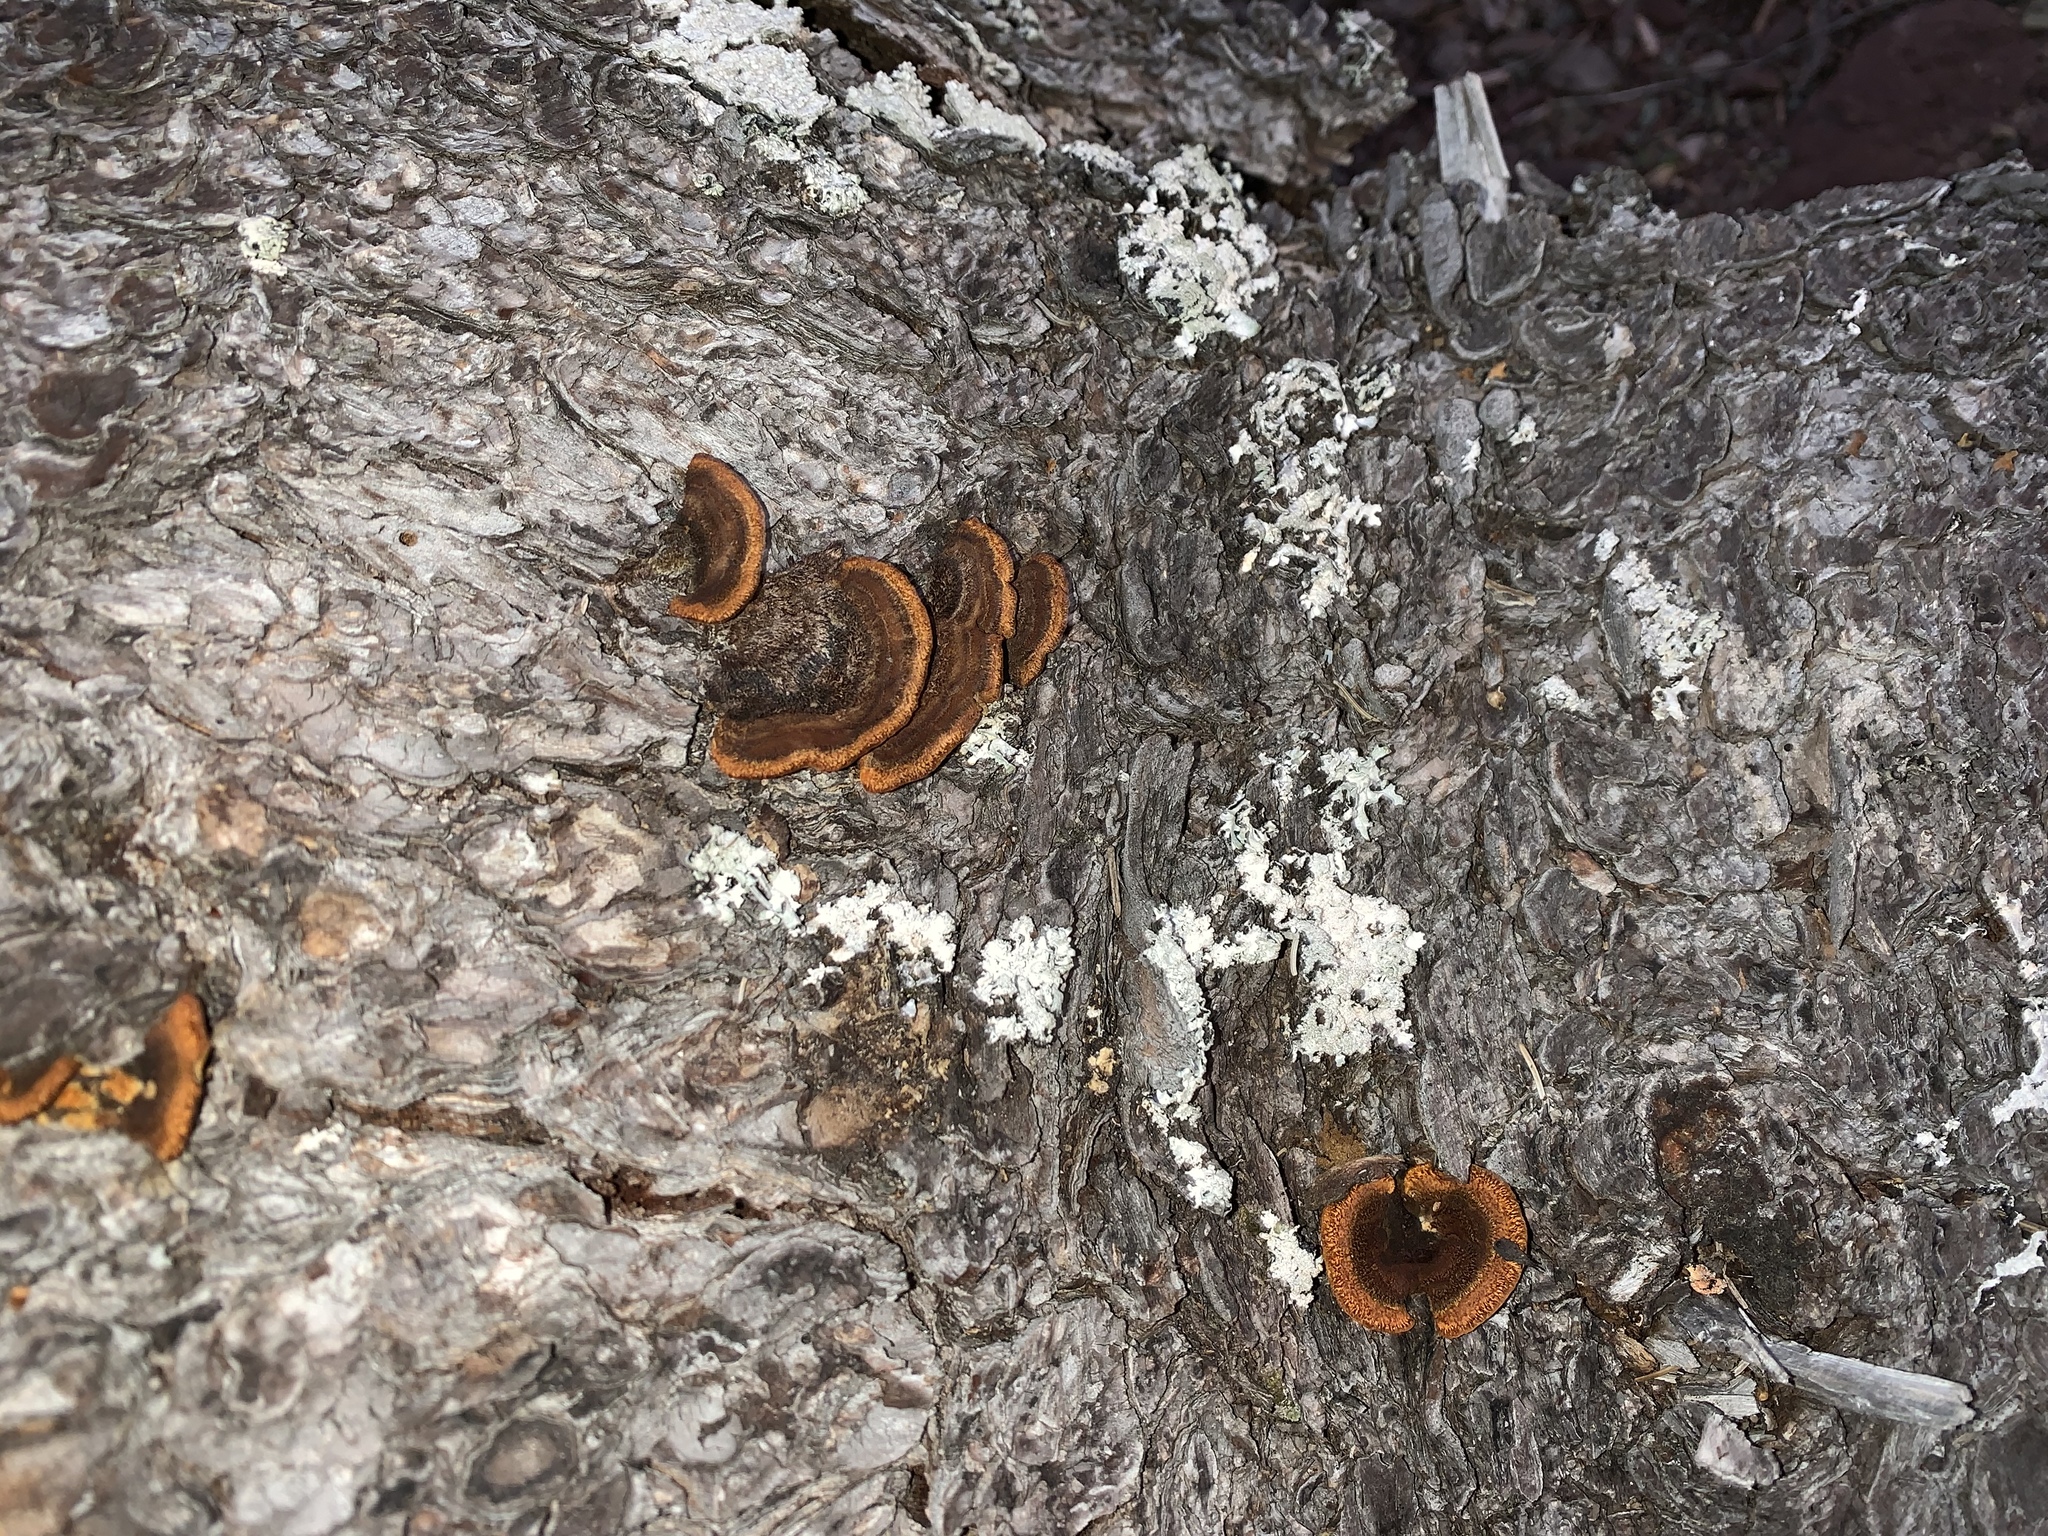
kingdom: Fungi
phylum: Basidiomycota
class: Agaricomycetes
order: Gloeophyllales
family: Gloeophyllaceae
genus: Gloeophyllum
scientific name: Gloeophyllum sepiarium
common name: Conifer mazegill
